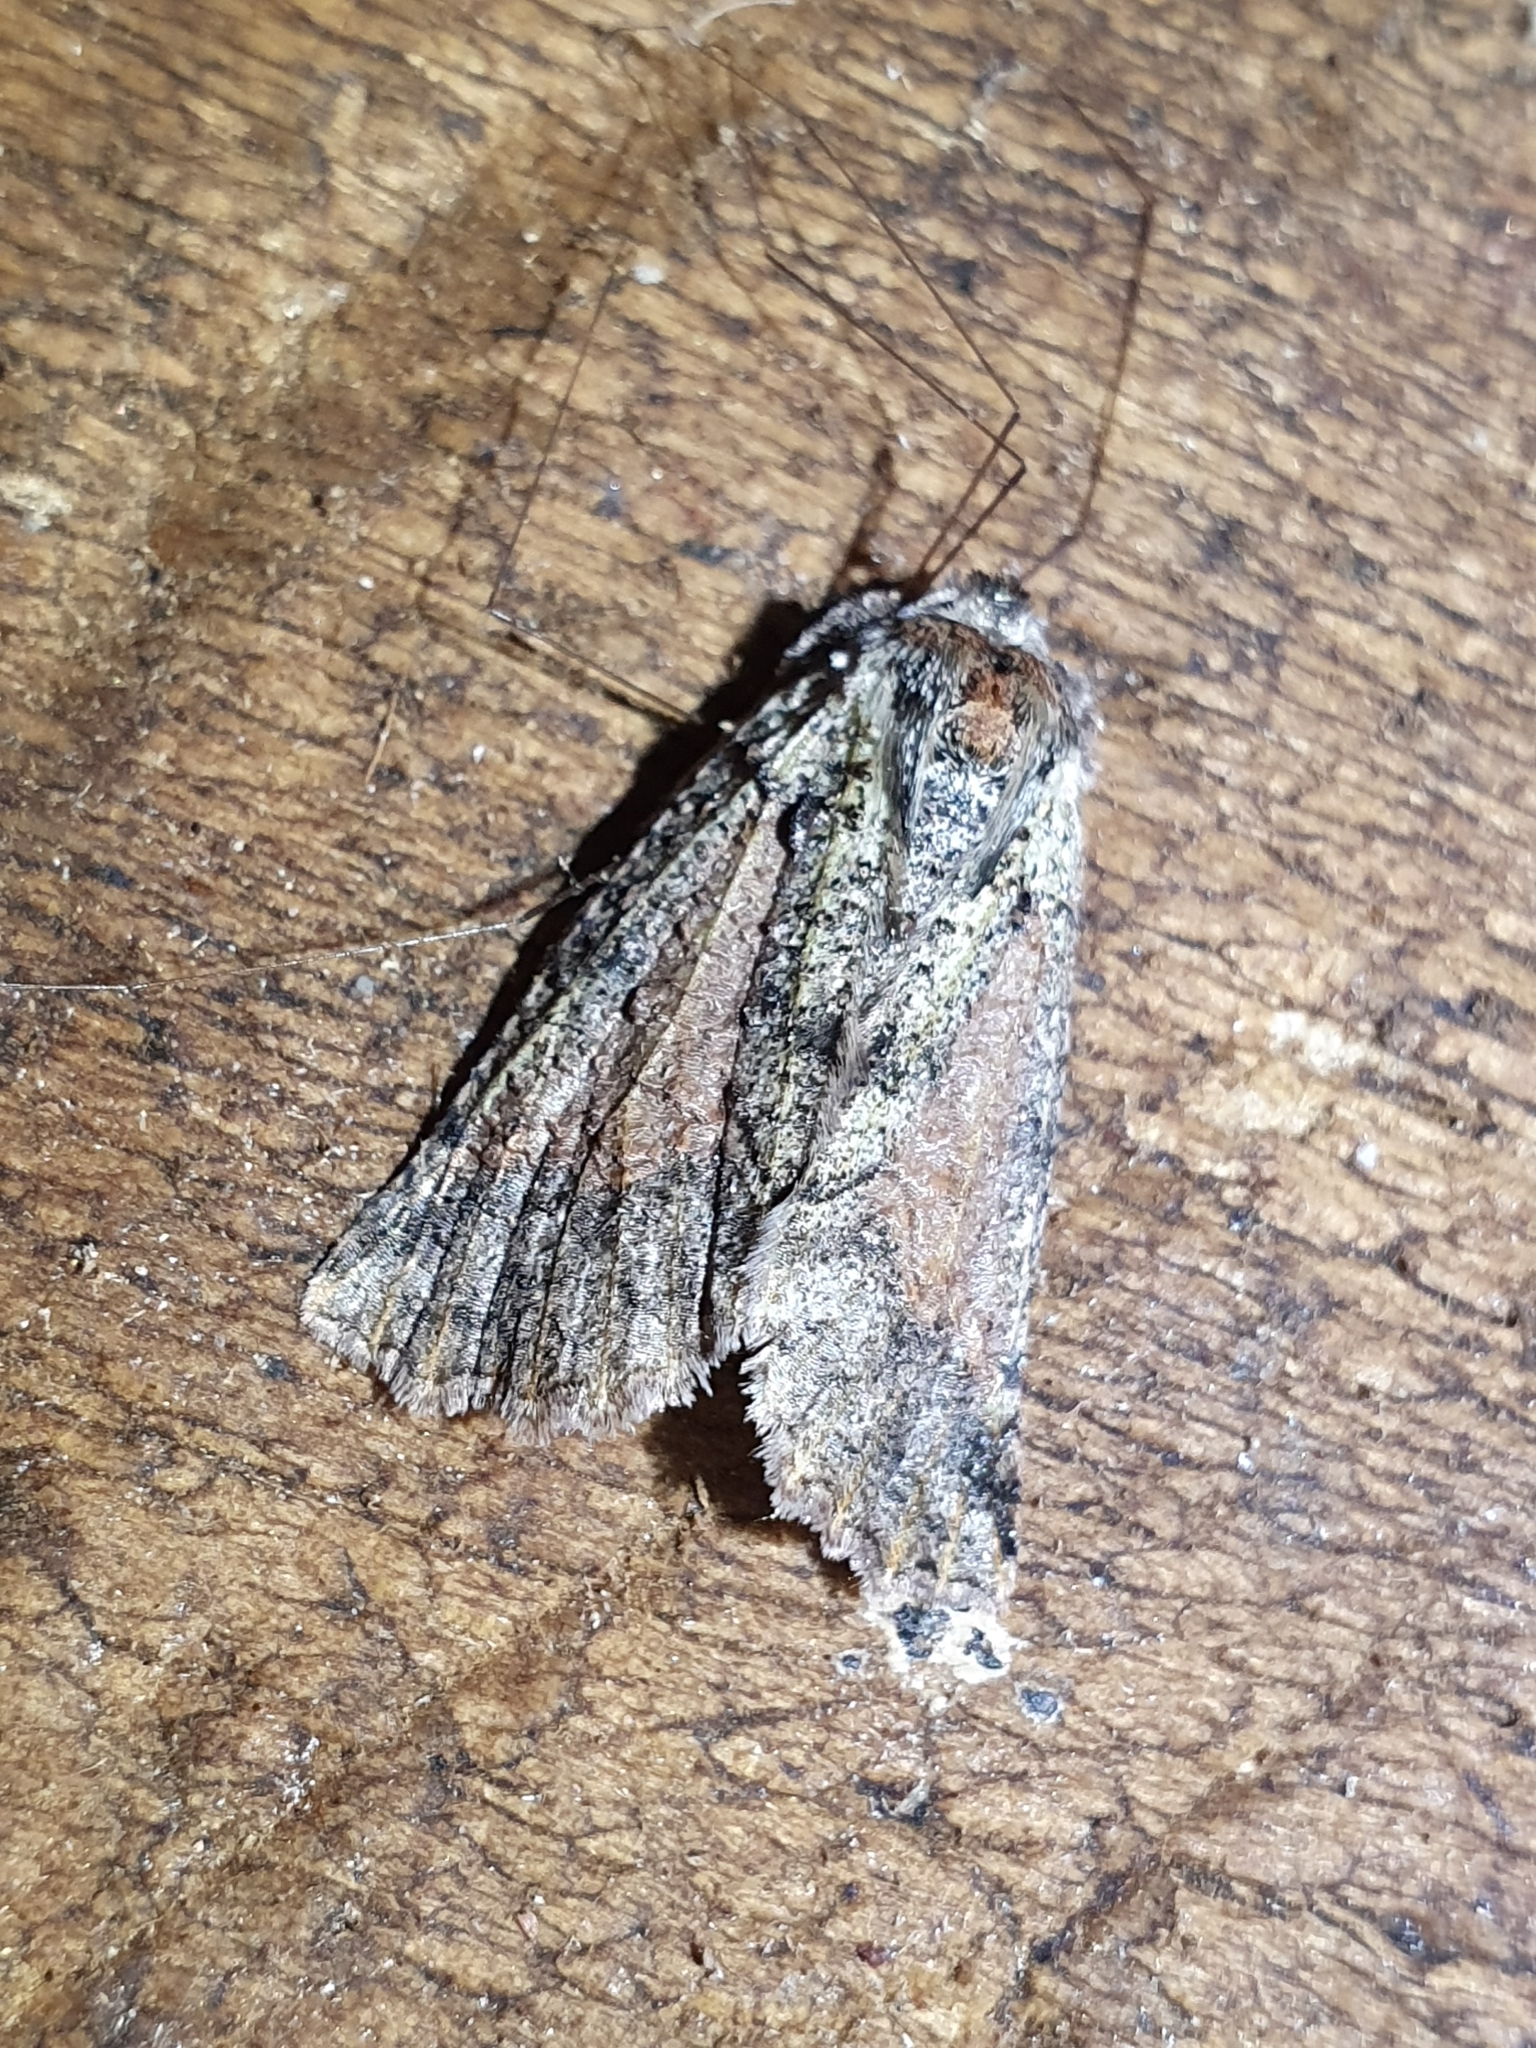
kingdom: Animalia
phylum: Arthropoda
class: Insecta
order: Lepidoptera
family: Geometridae
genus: Declana
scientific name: Declana floccosa
